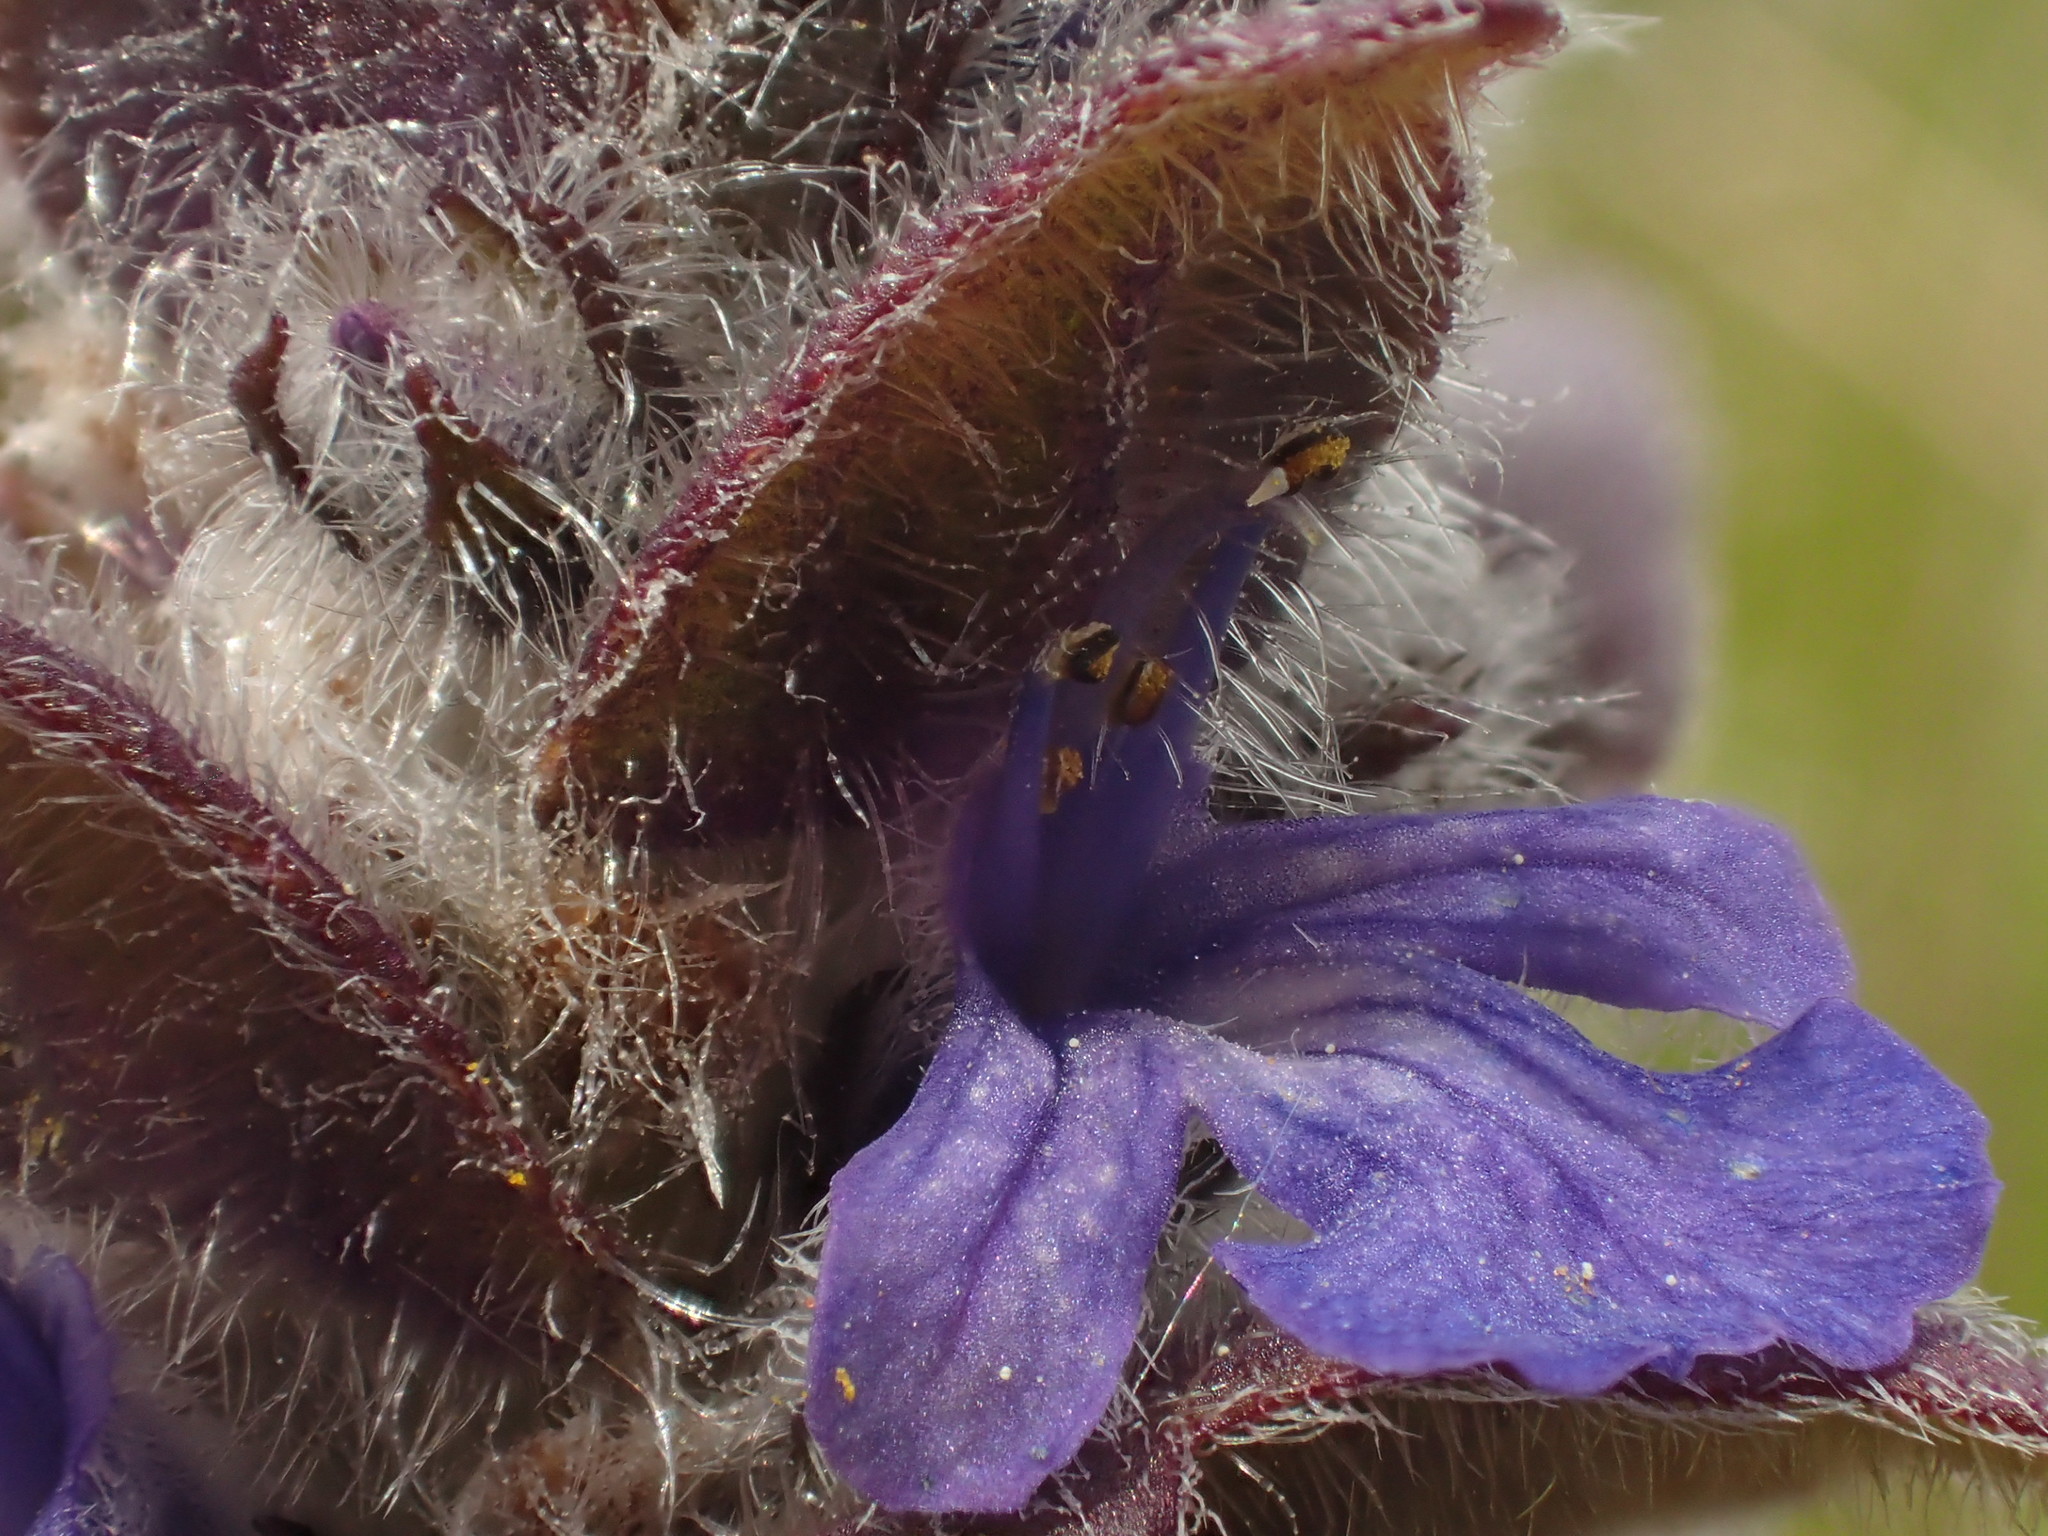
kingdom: Plantae
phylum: Tracheophyta
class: Magnoliopsida
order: Lamiales
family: Lamiaceae
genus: Ajuga
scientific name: Ajuga genevensis
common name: Blue bugle
